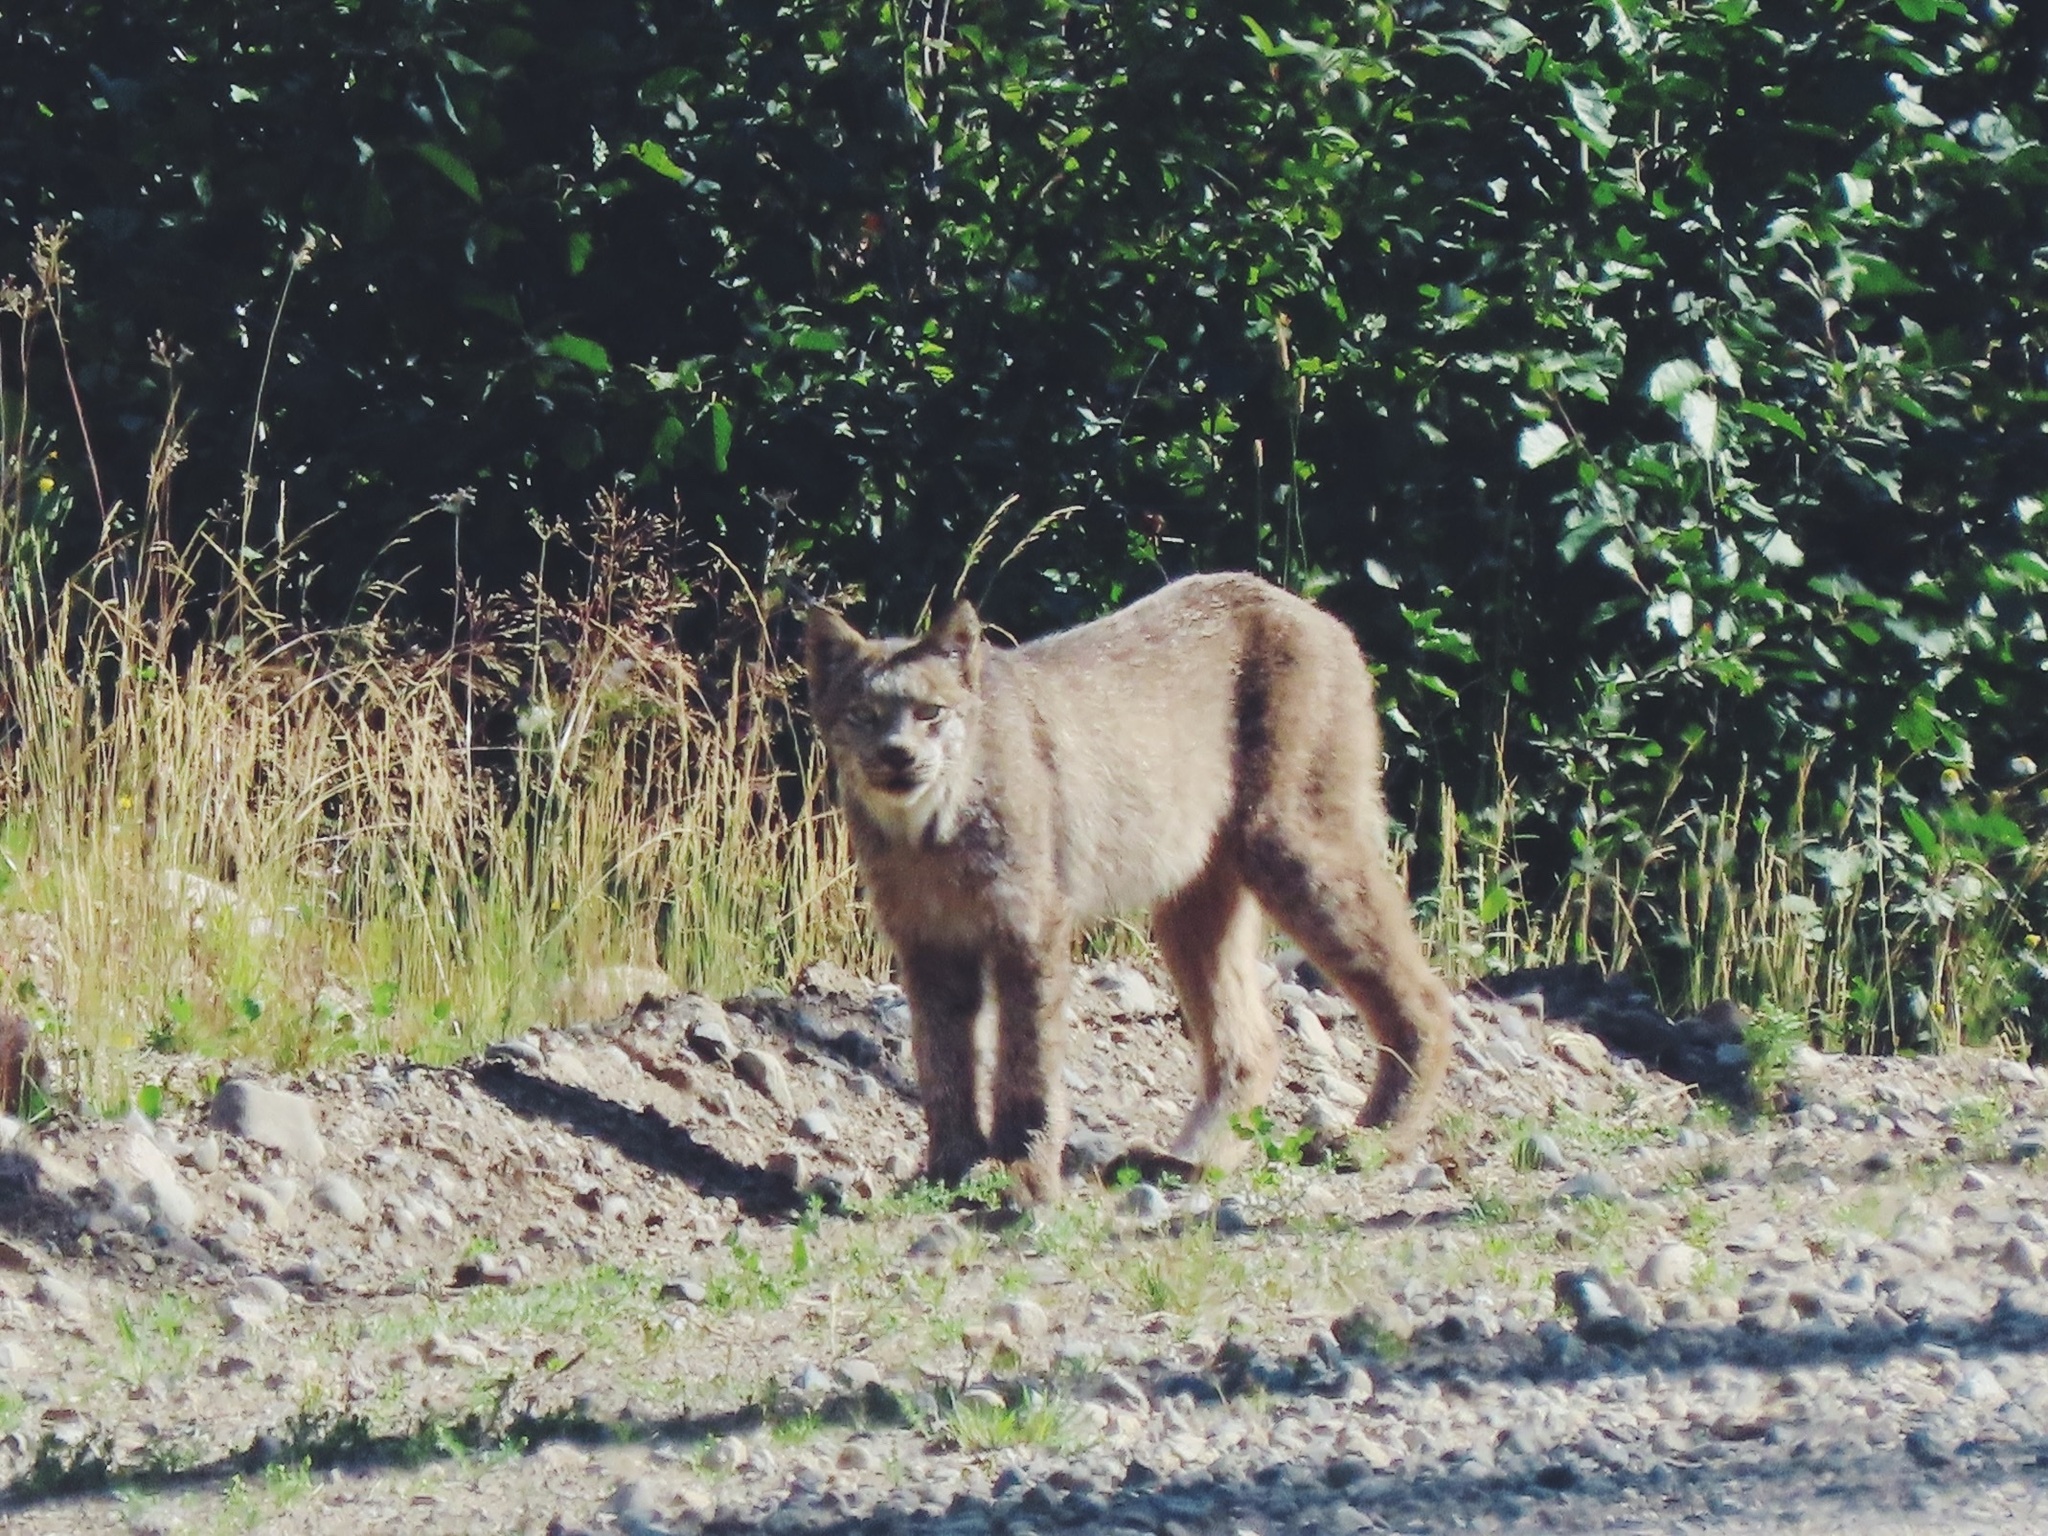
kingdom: Animalia
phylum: Chordata
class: Mammalia
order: Carnivora
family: Felidae
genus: Lynx
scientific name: Lynx canadensis
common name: Canadian lynx
